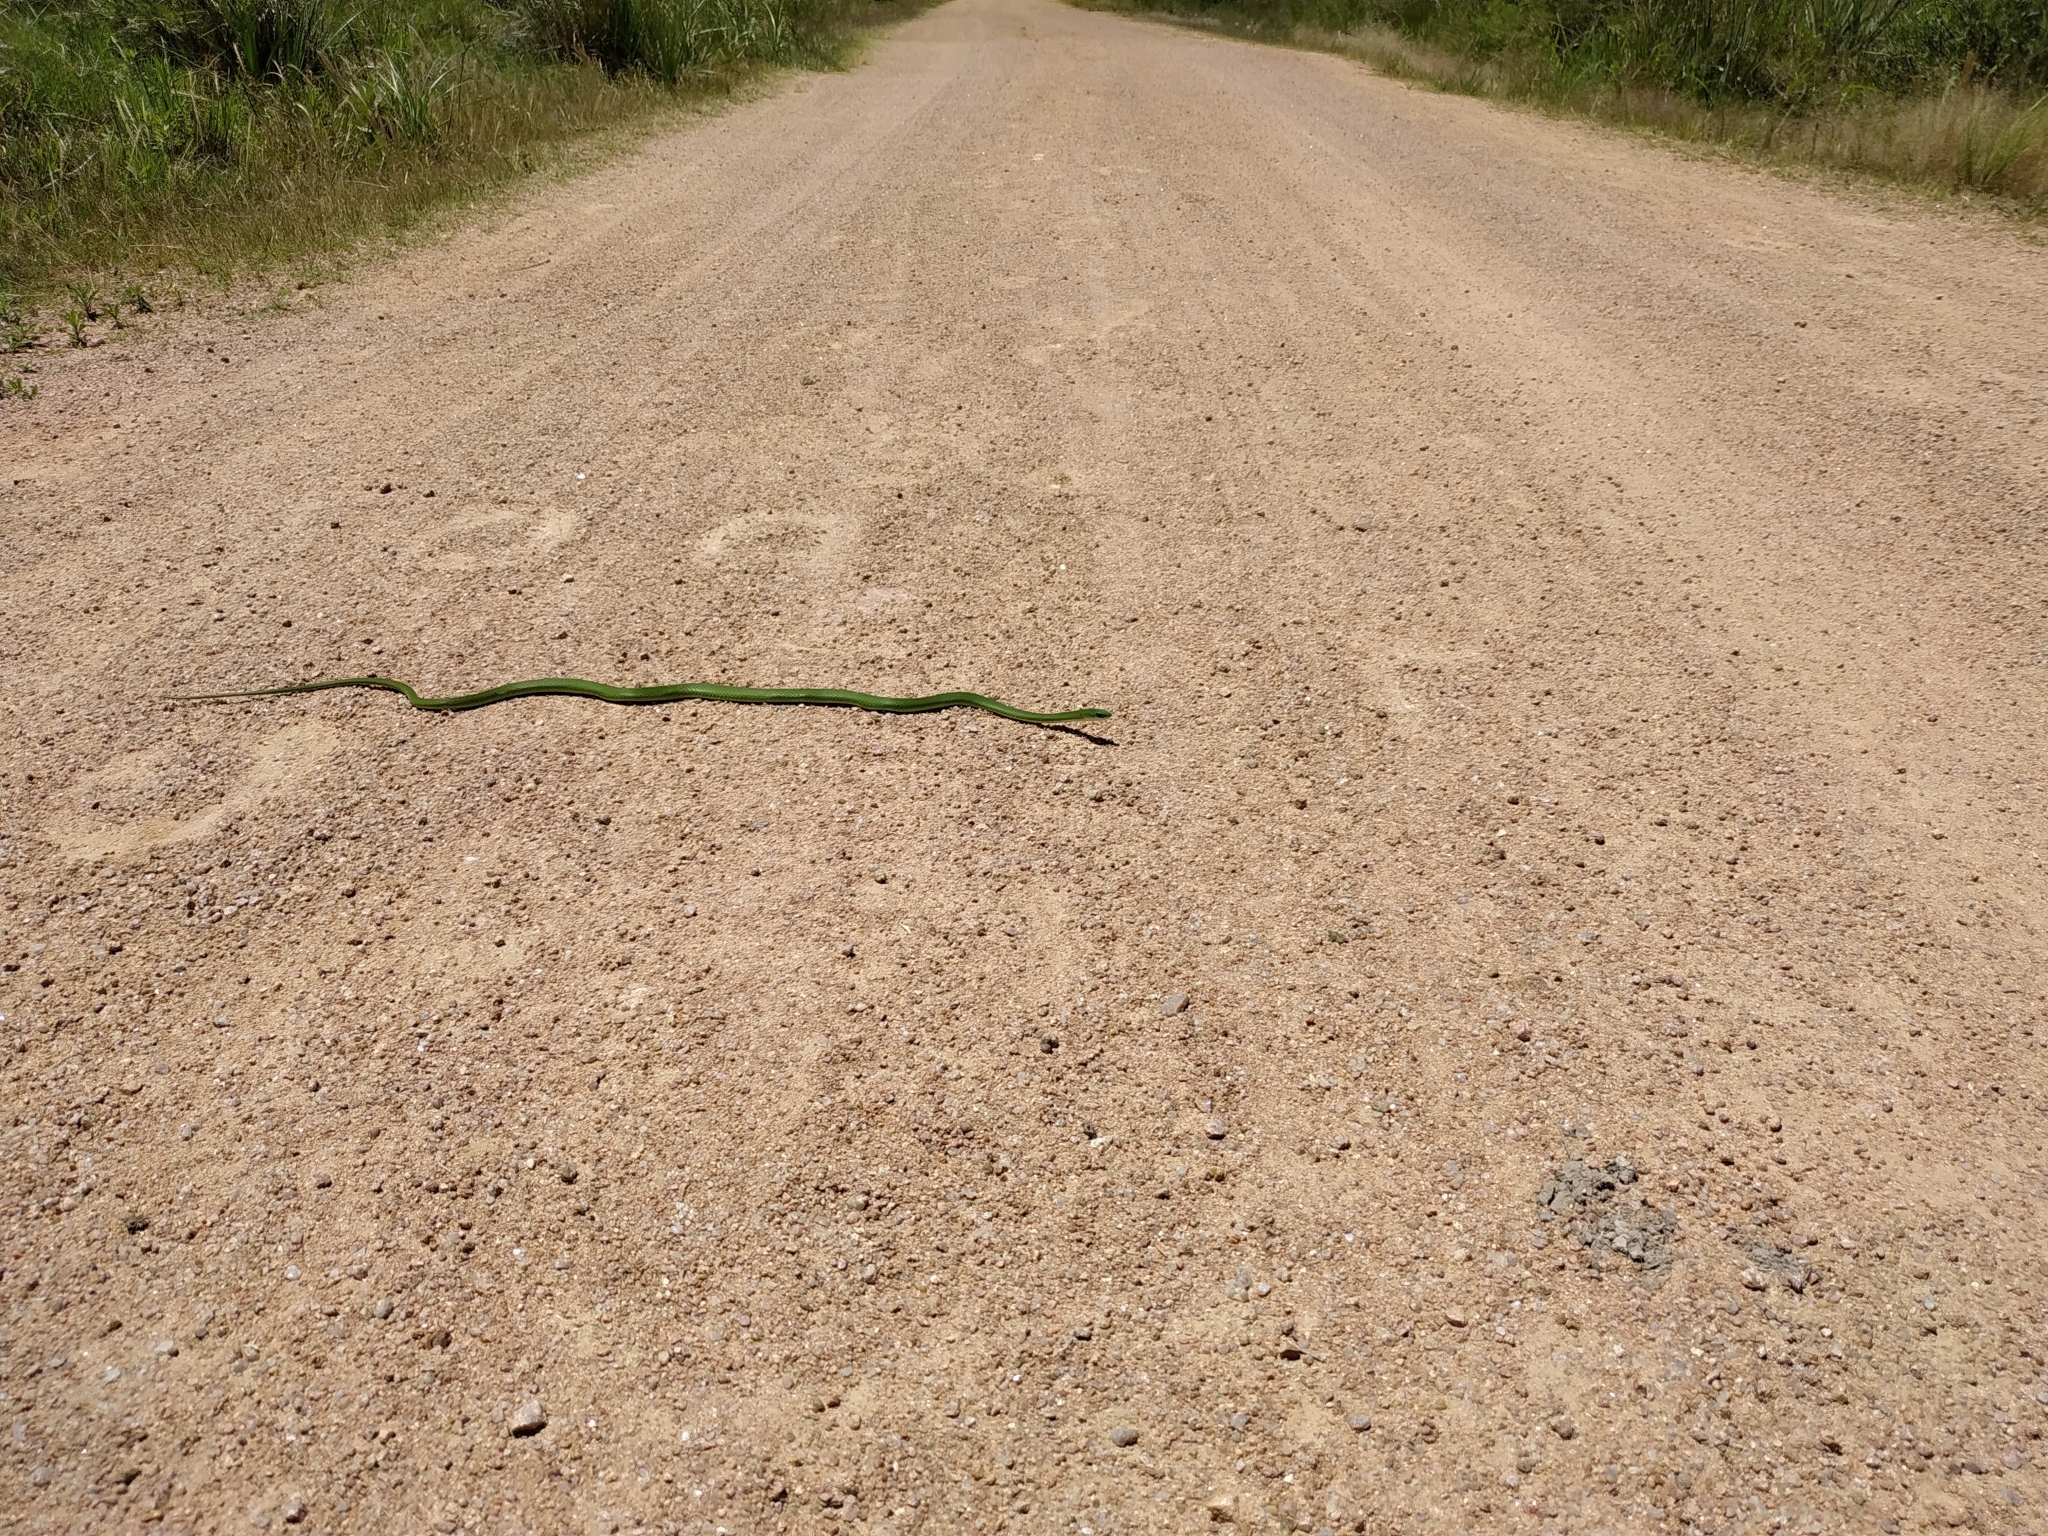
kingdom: Animalia
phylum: Chordata
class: Squamata
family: Colubridae
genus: Philodryas
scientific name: Philodryas aestiva
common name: Brazilian green racer
